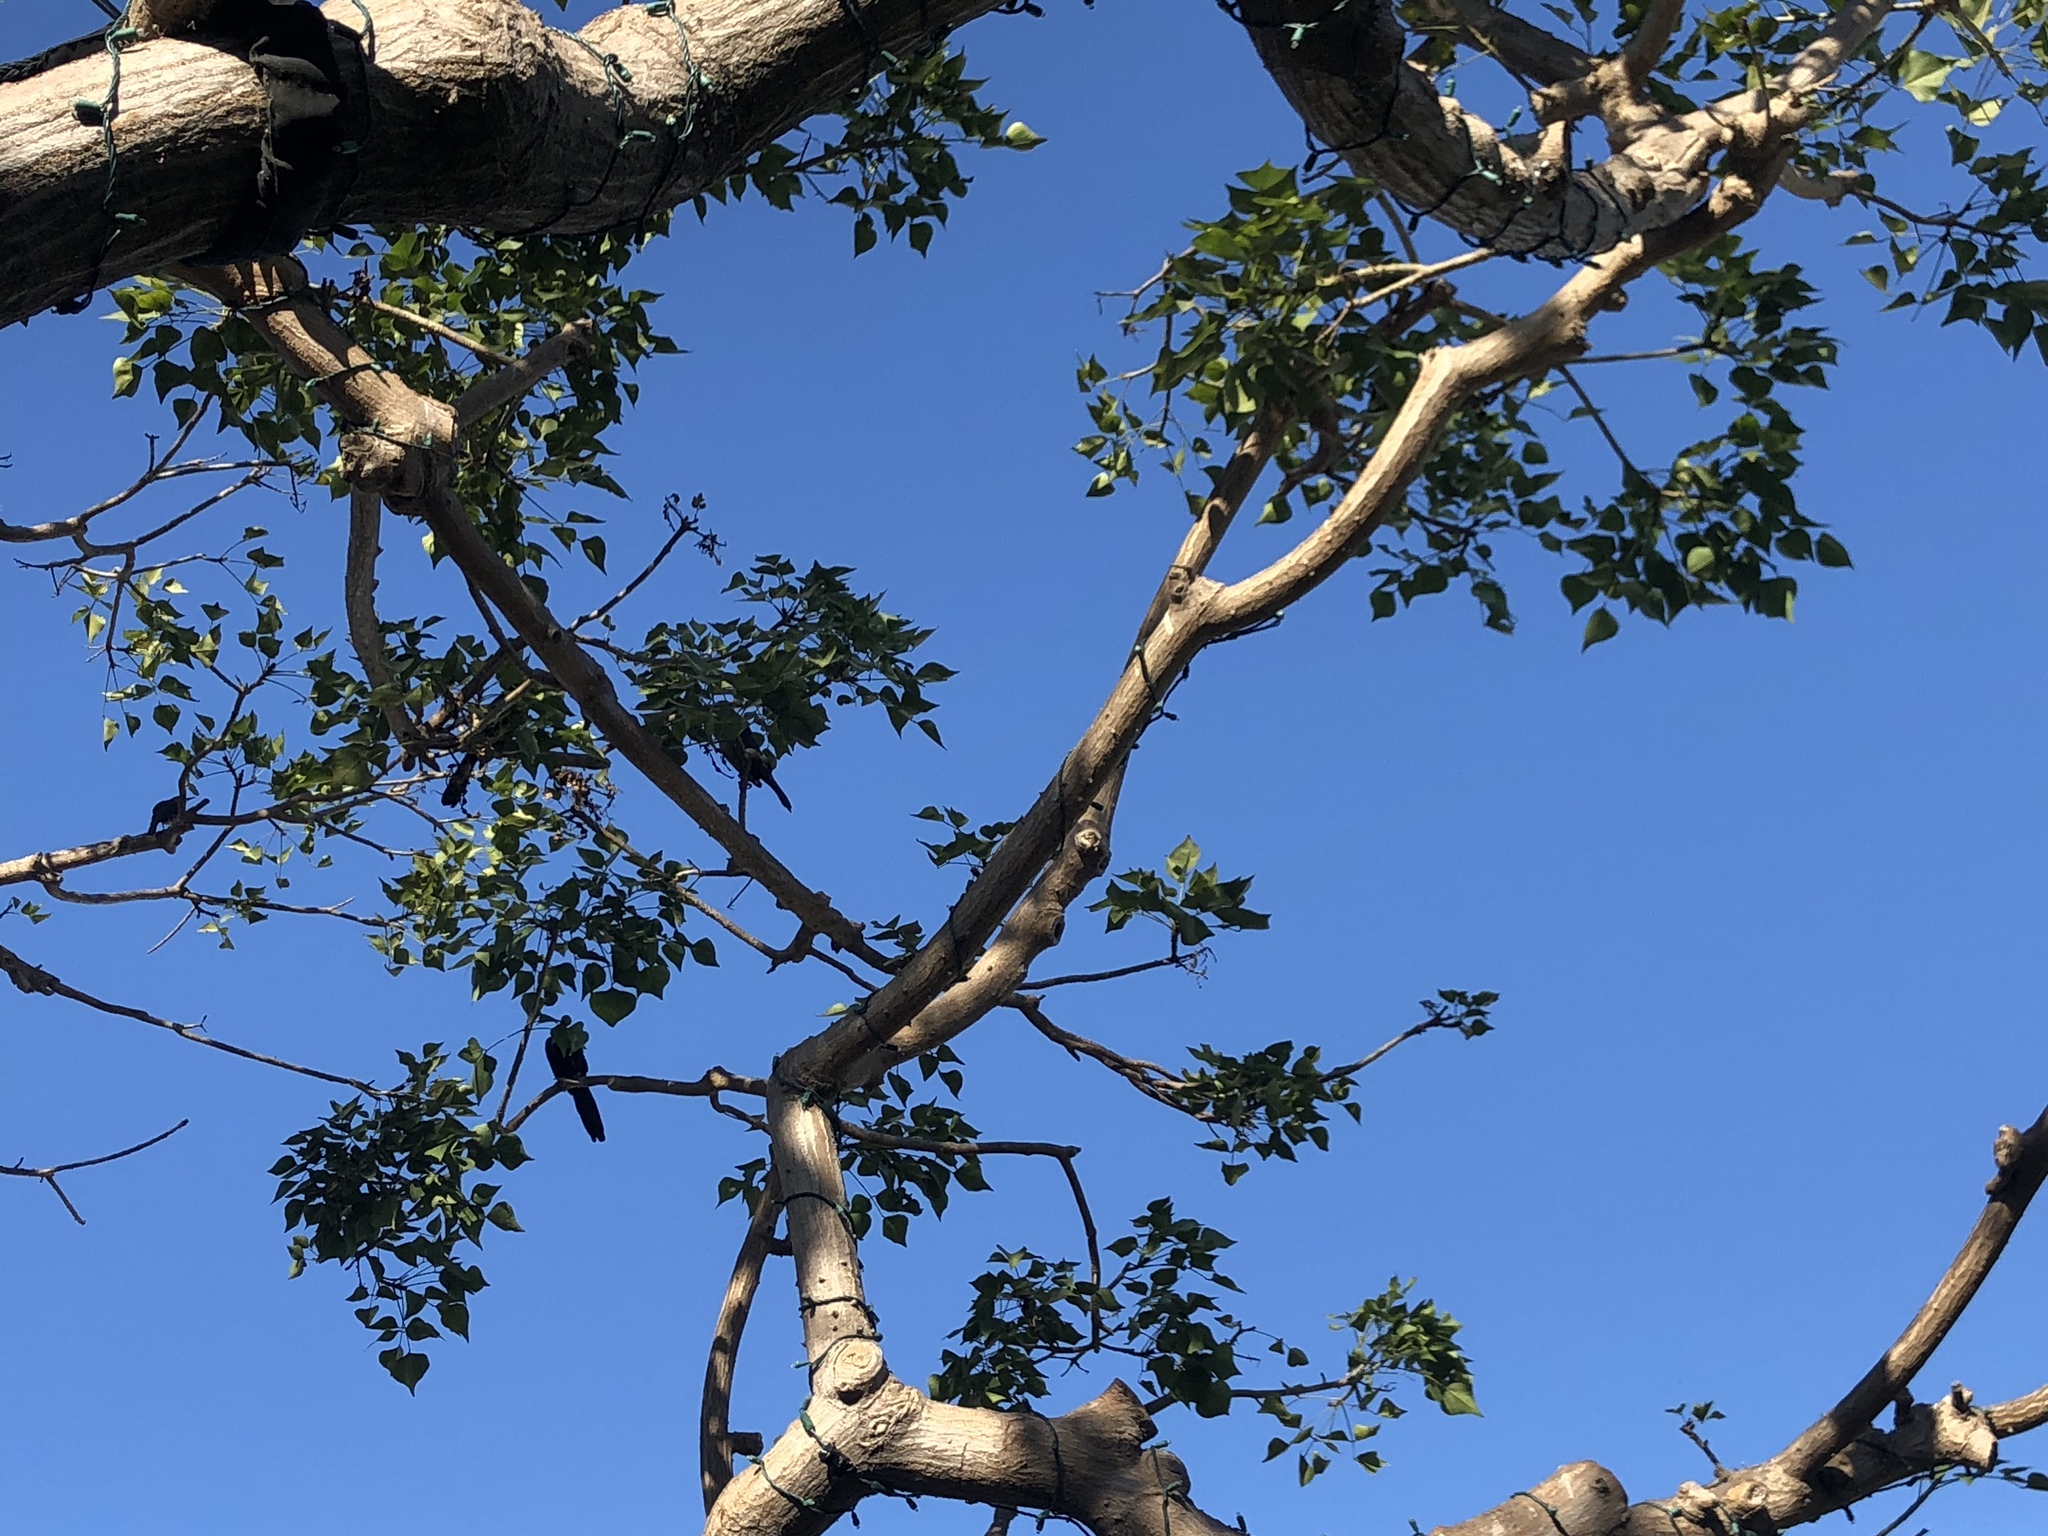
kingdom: Animalia
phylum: Chordata
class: Aves
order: Passeriformes
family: Icteridae
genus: Quiscalus
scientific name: Quiscalus mexicanus
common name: Great-tailed grackle
